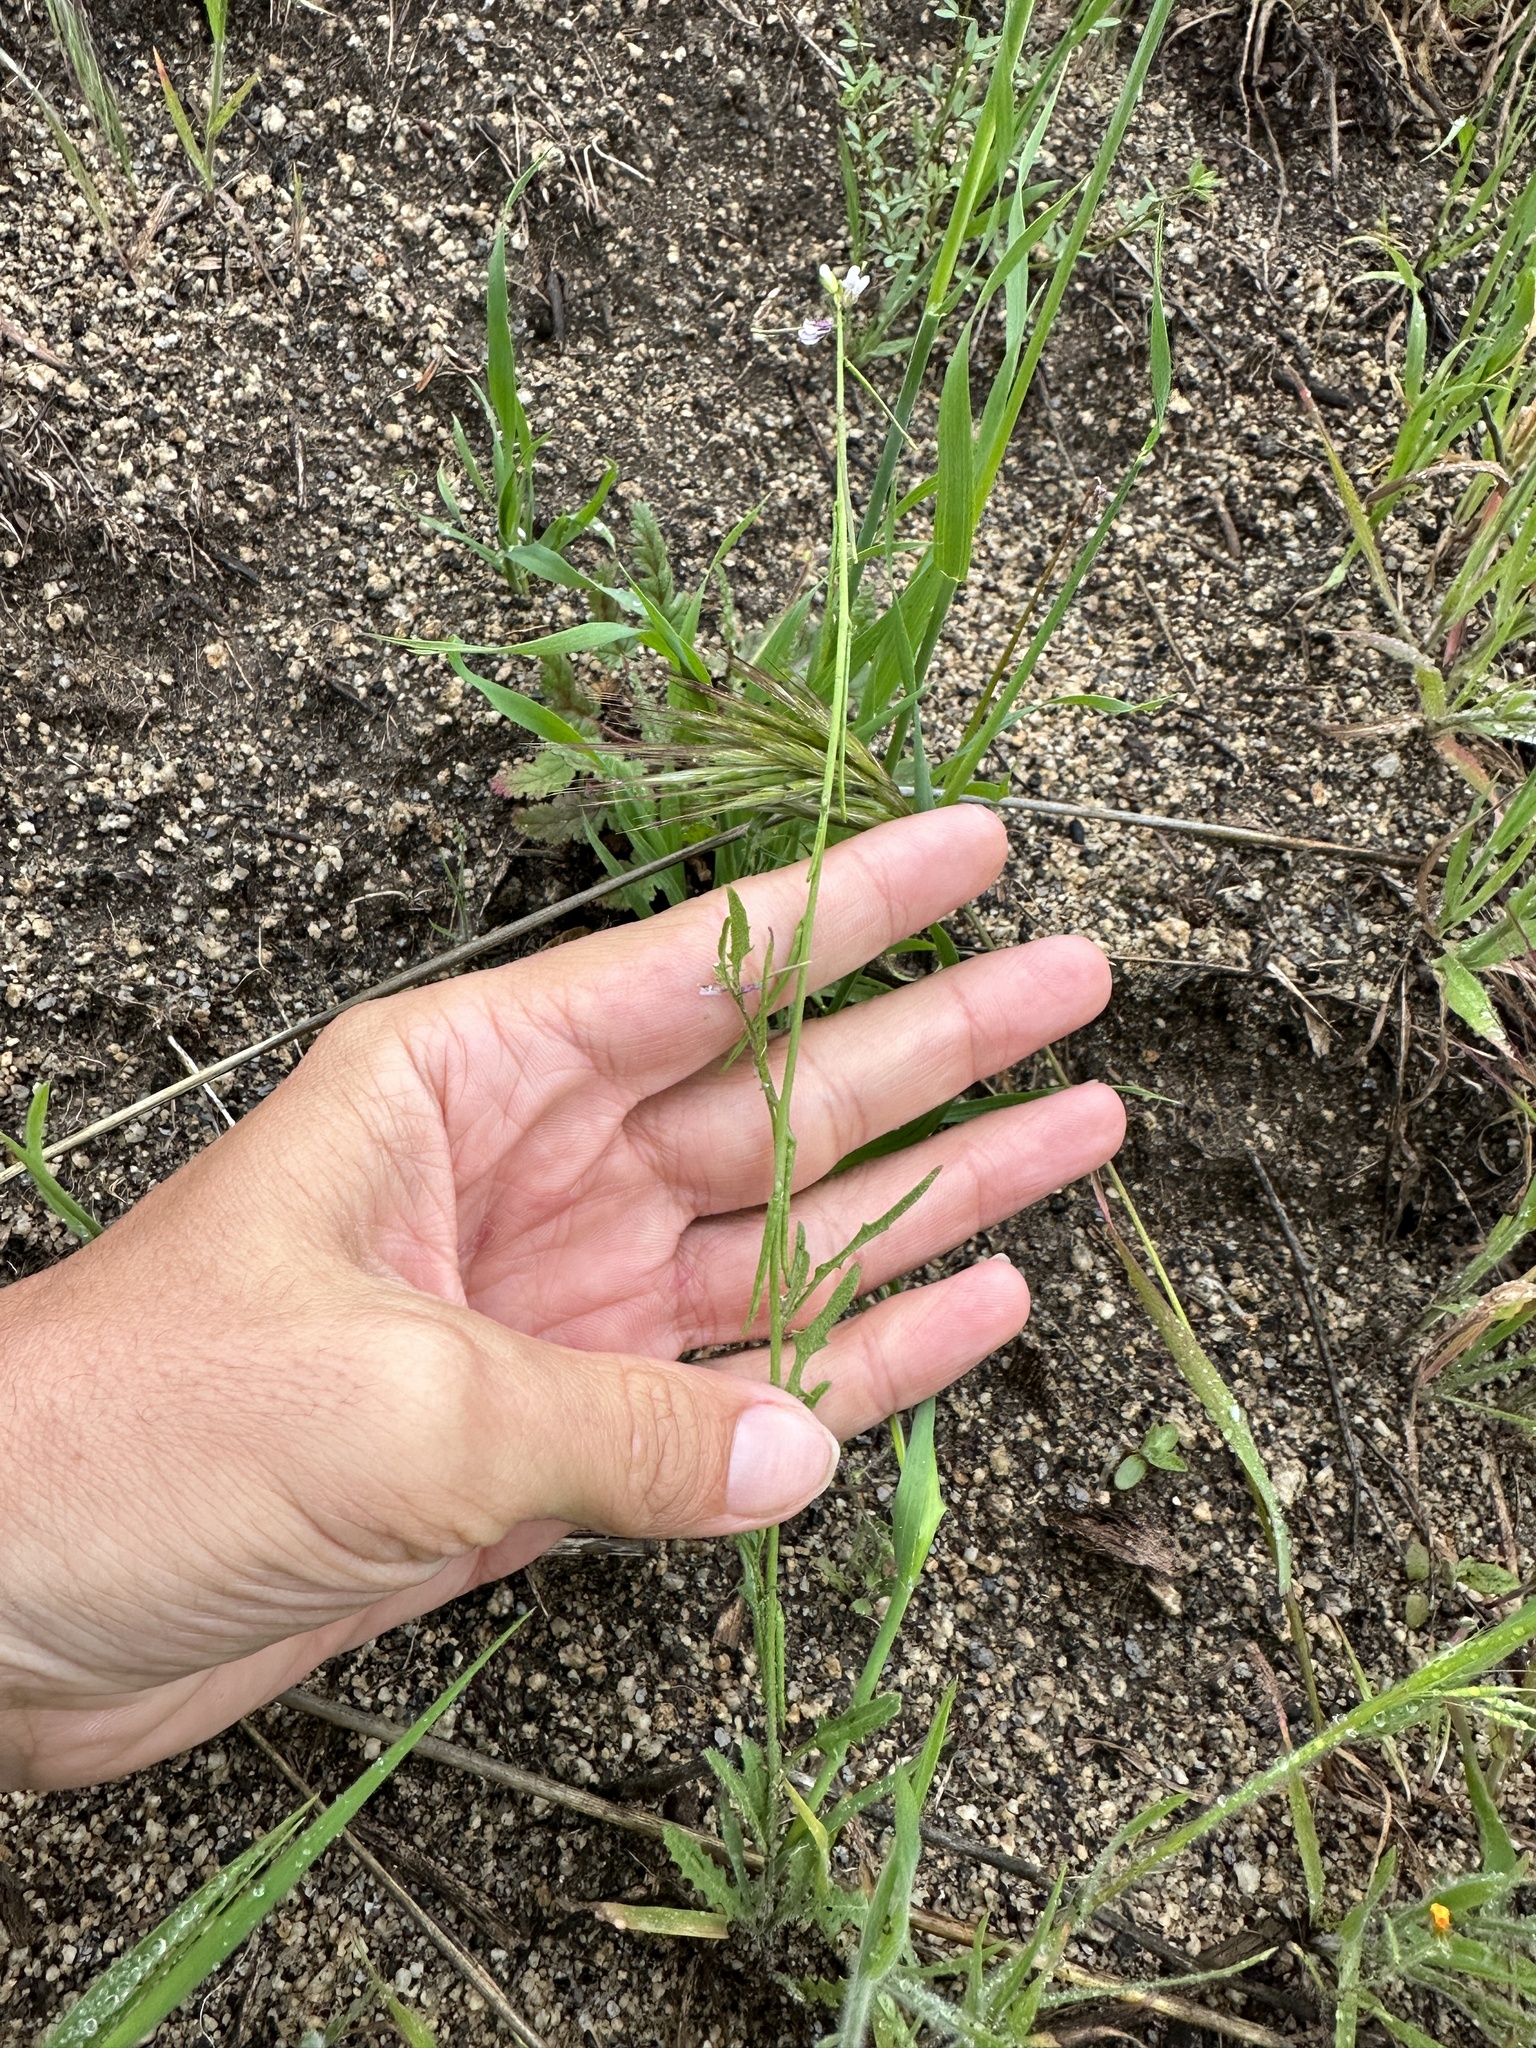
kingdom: Plantae
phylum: Tracheophyta
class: Magnoliopsida
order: Brassicales
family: Brassicaceae
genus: Streptanthus
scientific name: Streptanthus lasiophyllus
